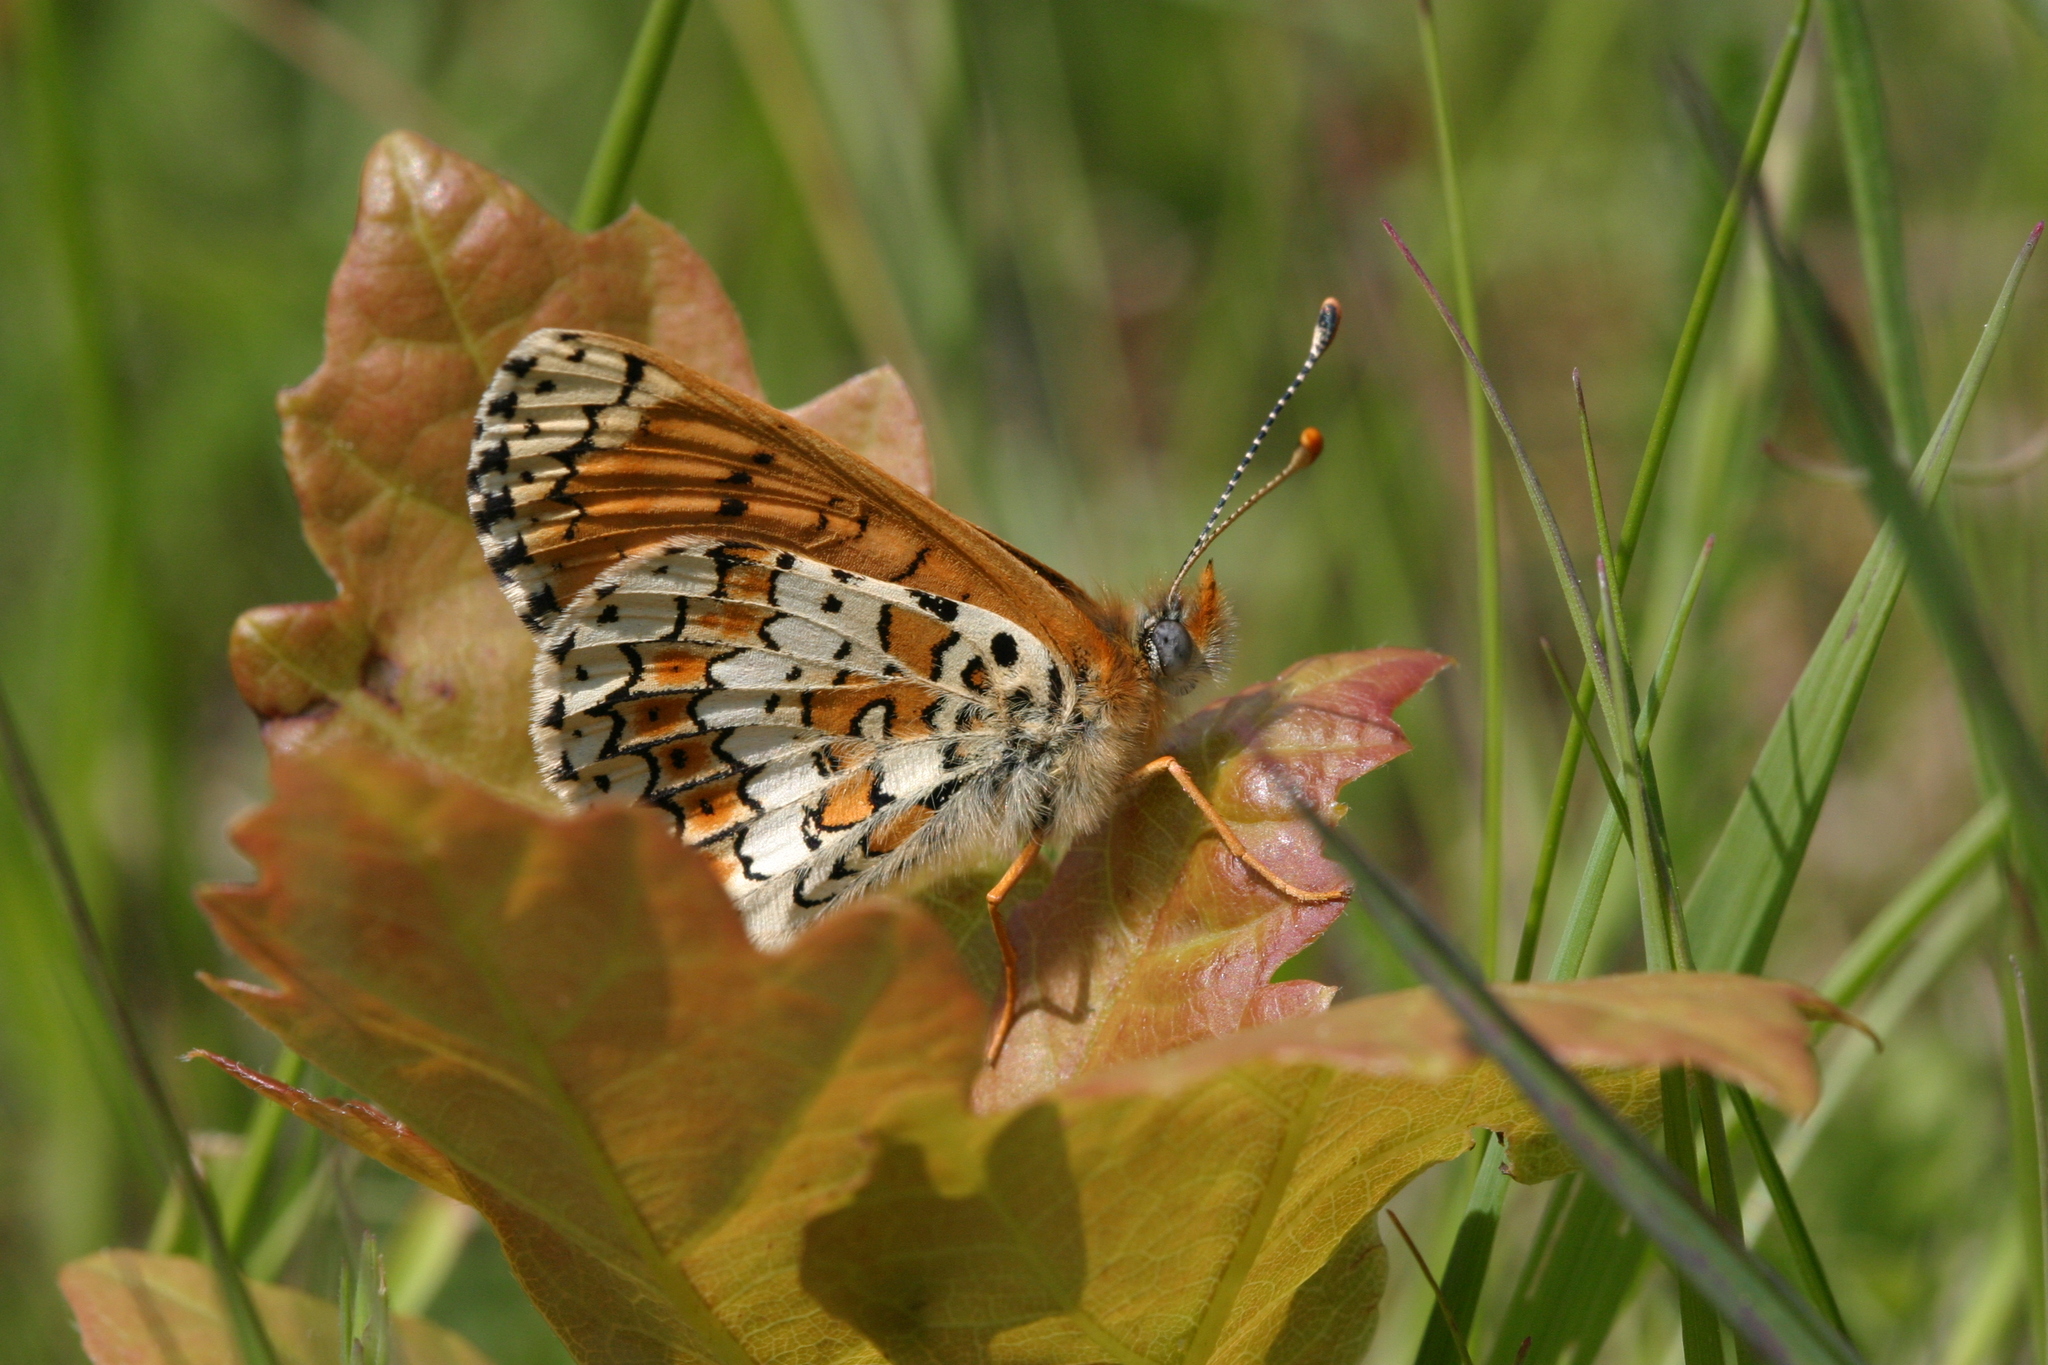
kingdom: Animalia
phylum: Arthropoda
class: Insecta
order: Lepidoptera
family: Nymphalidae
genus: Melitaea
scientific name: Melitaea cinxia
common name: Glanville fritillary
